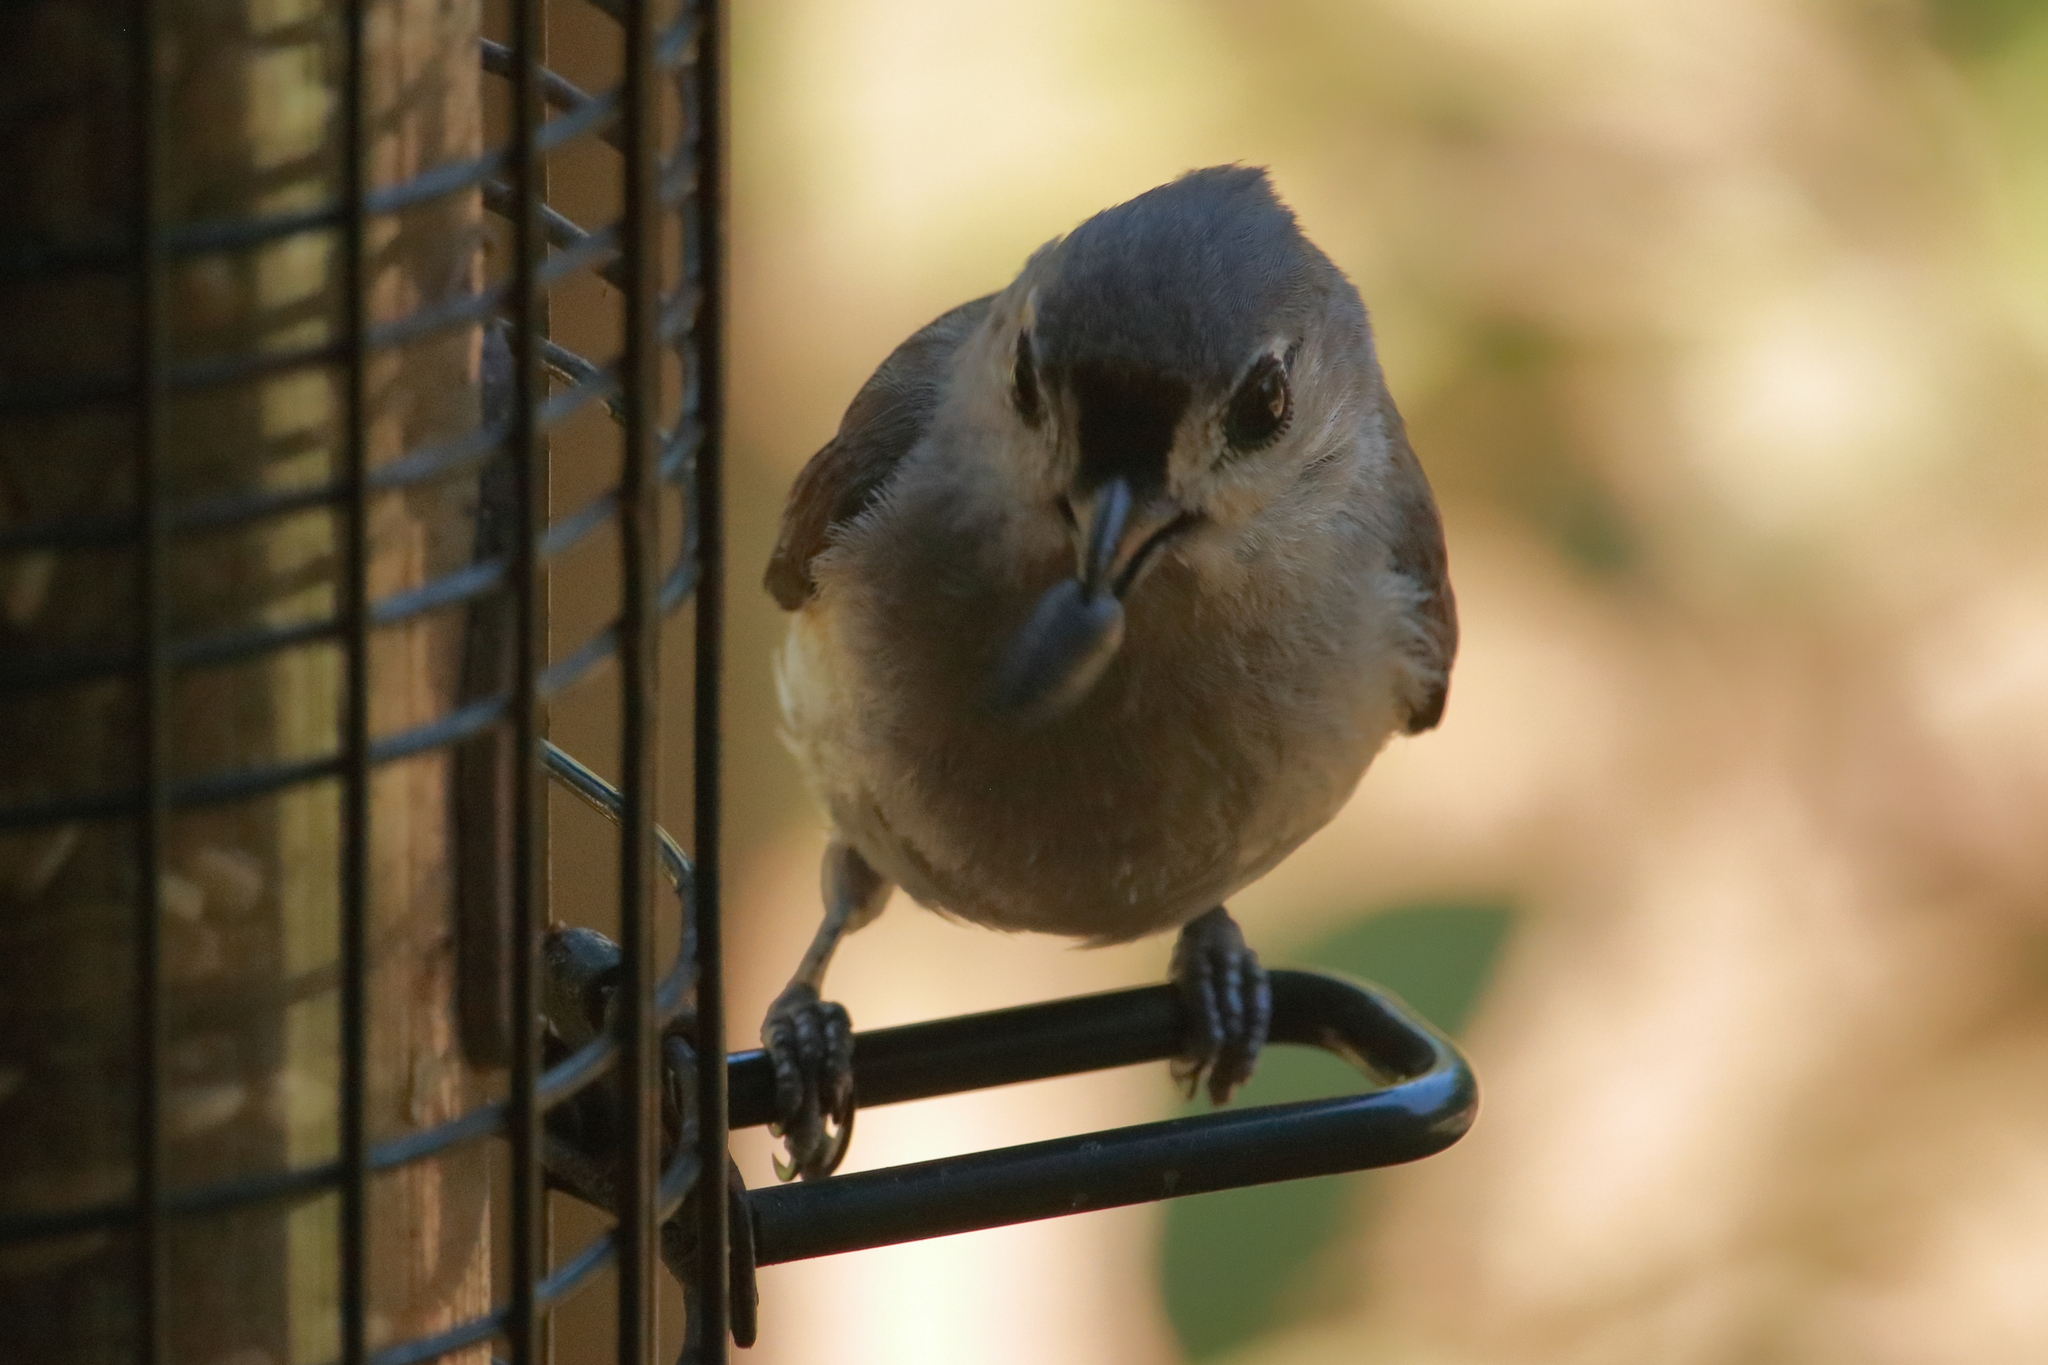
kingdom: Animalia
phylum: Chordata
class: Aves
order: Passeriformes
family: Paridae
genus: Baeolophus
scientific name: Baeolophus bicolor
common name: Tufted titmouse
